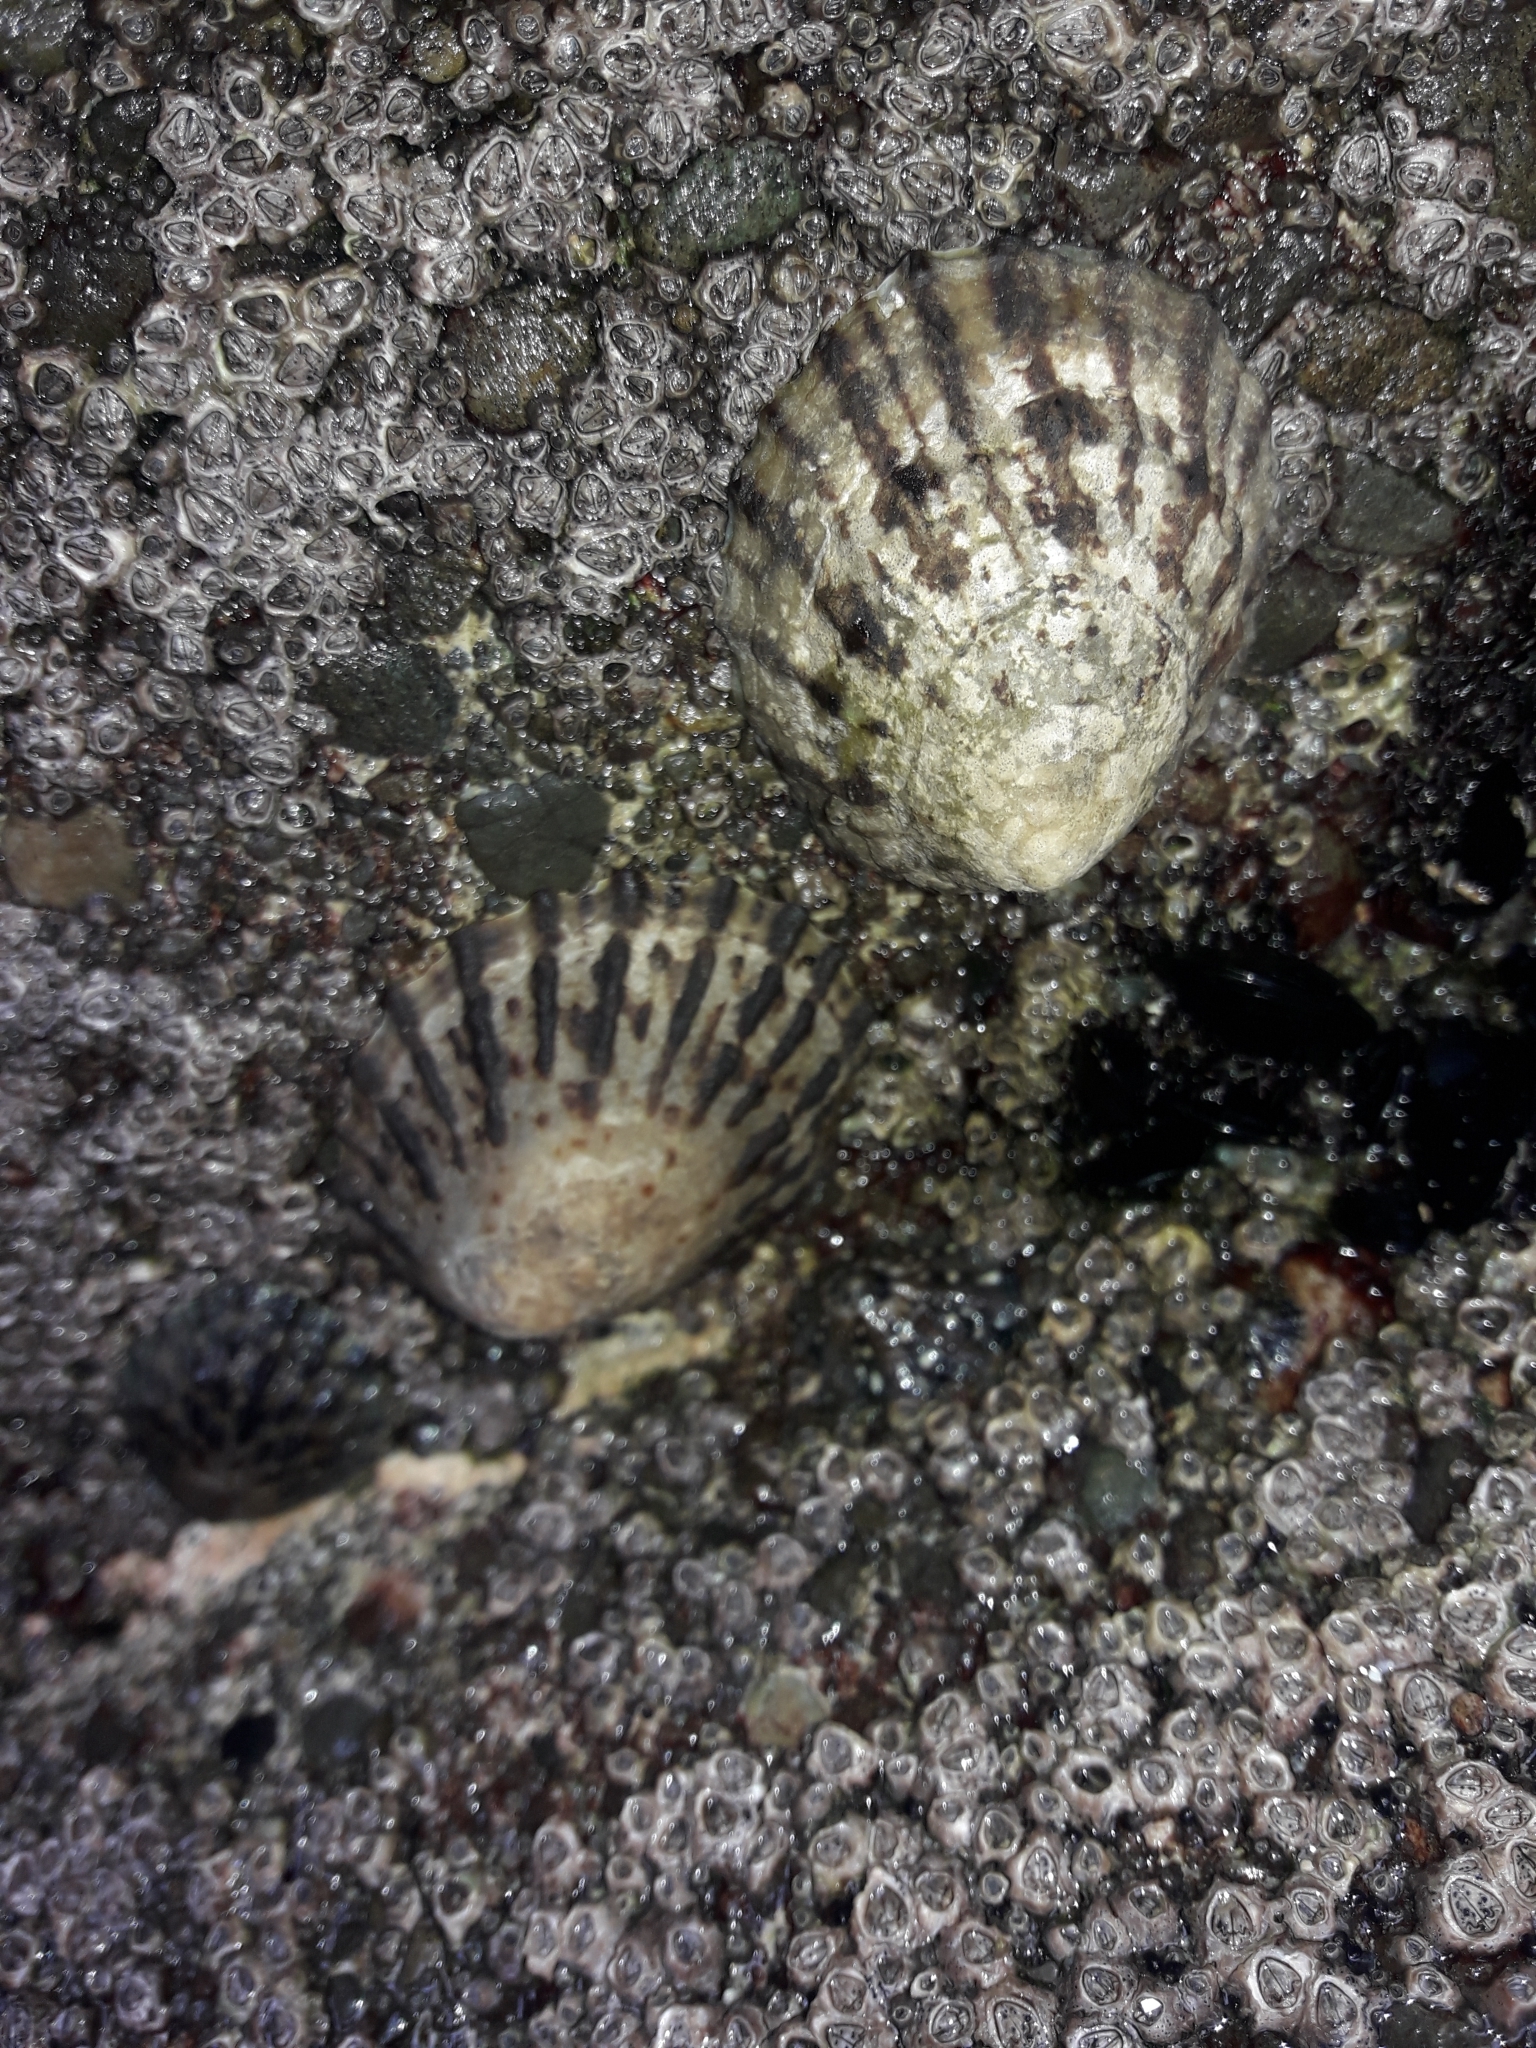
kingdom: Animalia
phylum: Mollusca
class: Gastropoda
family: Nacellidae
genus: Cellana
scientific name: Cellana radians
